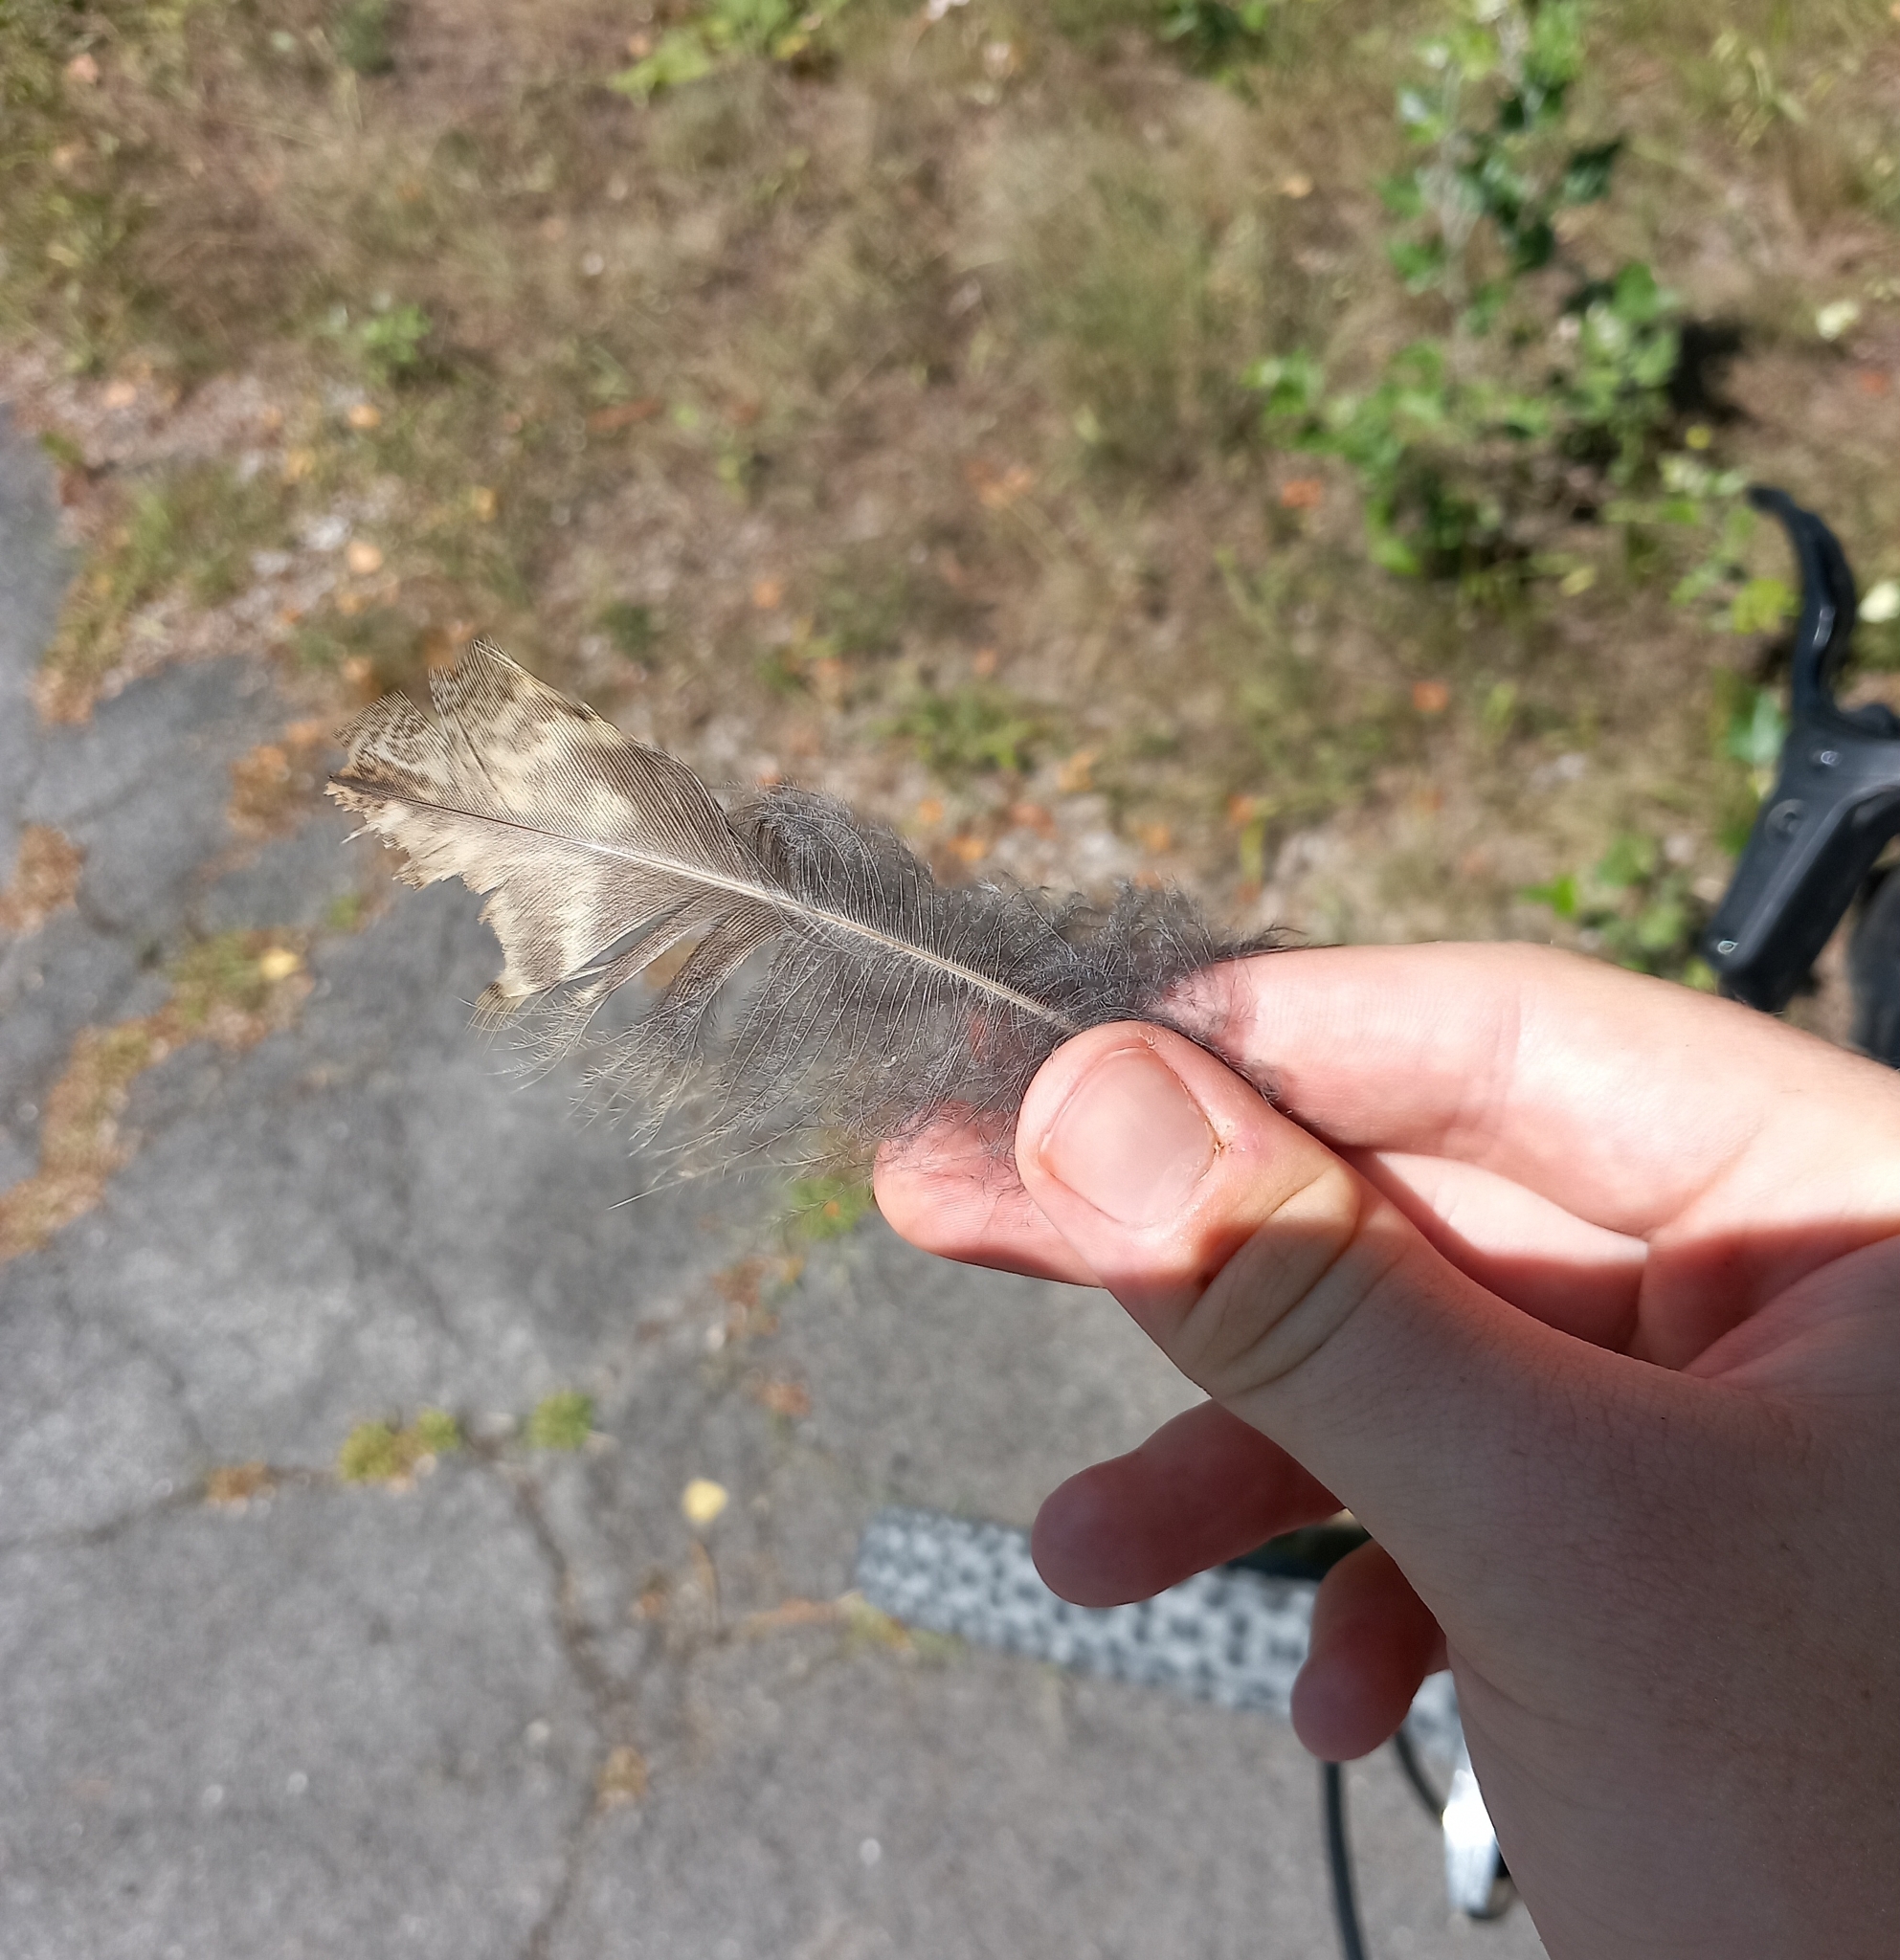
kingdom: Animalia
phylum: Chordata
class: Aves
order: Strigiformes
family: Strigidae
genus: Strix
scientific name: Strix aluco
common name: Tawny owl
